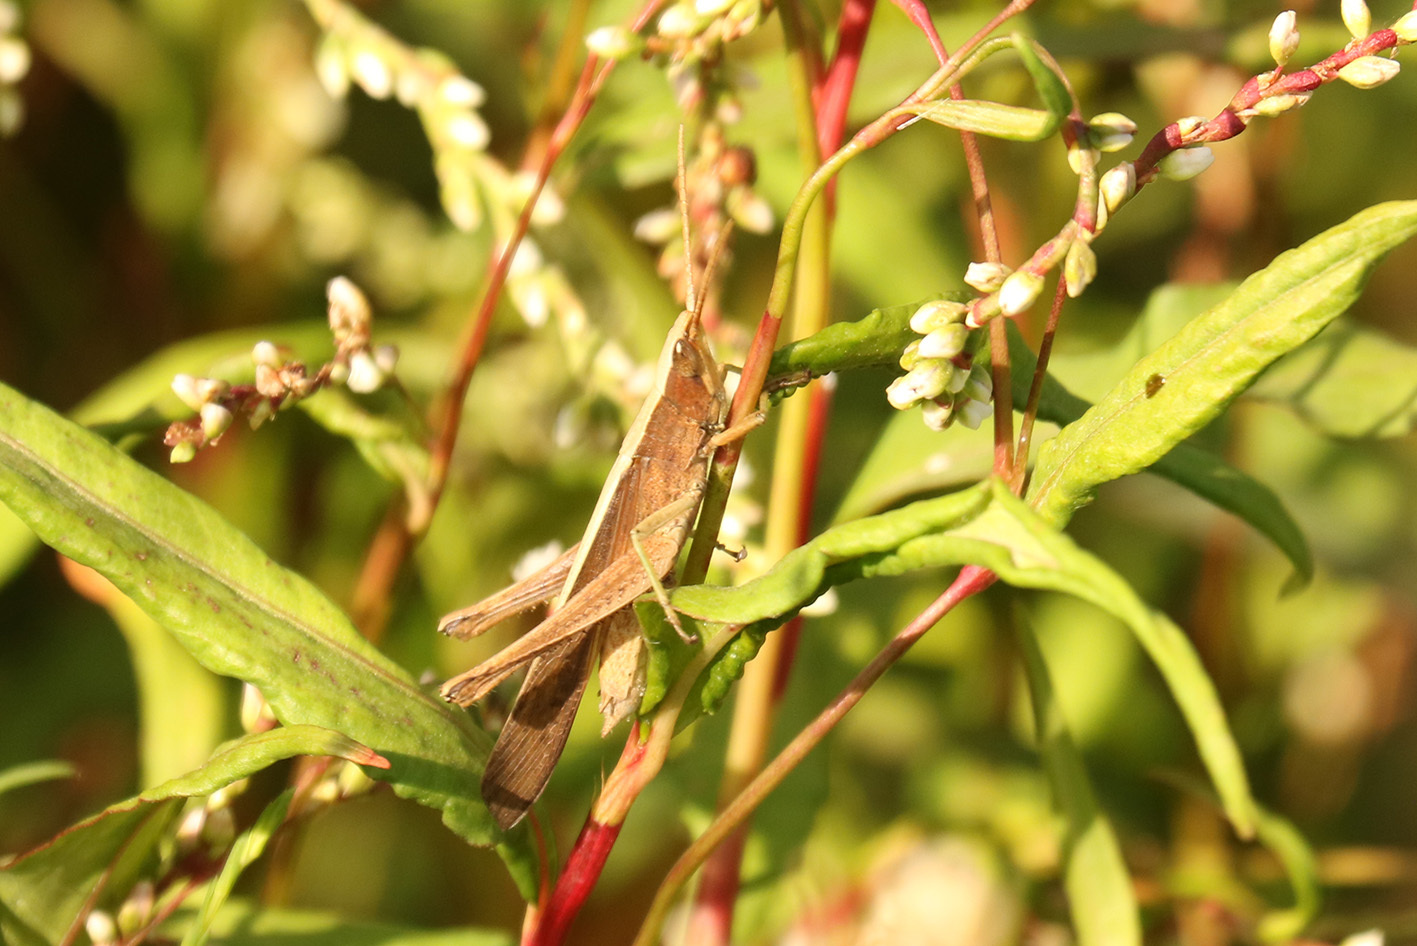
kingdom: Animalia
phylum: Arthropoda
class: Insecta
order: Orthoptera
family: Acrididae
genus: Metaleptea
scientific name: Metaleptea adspersa
